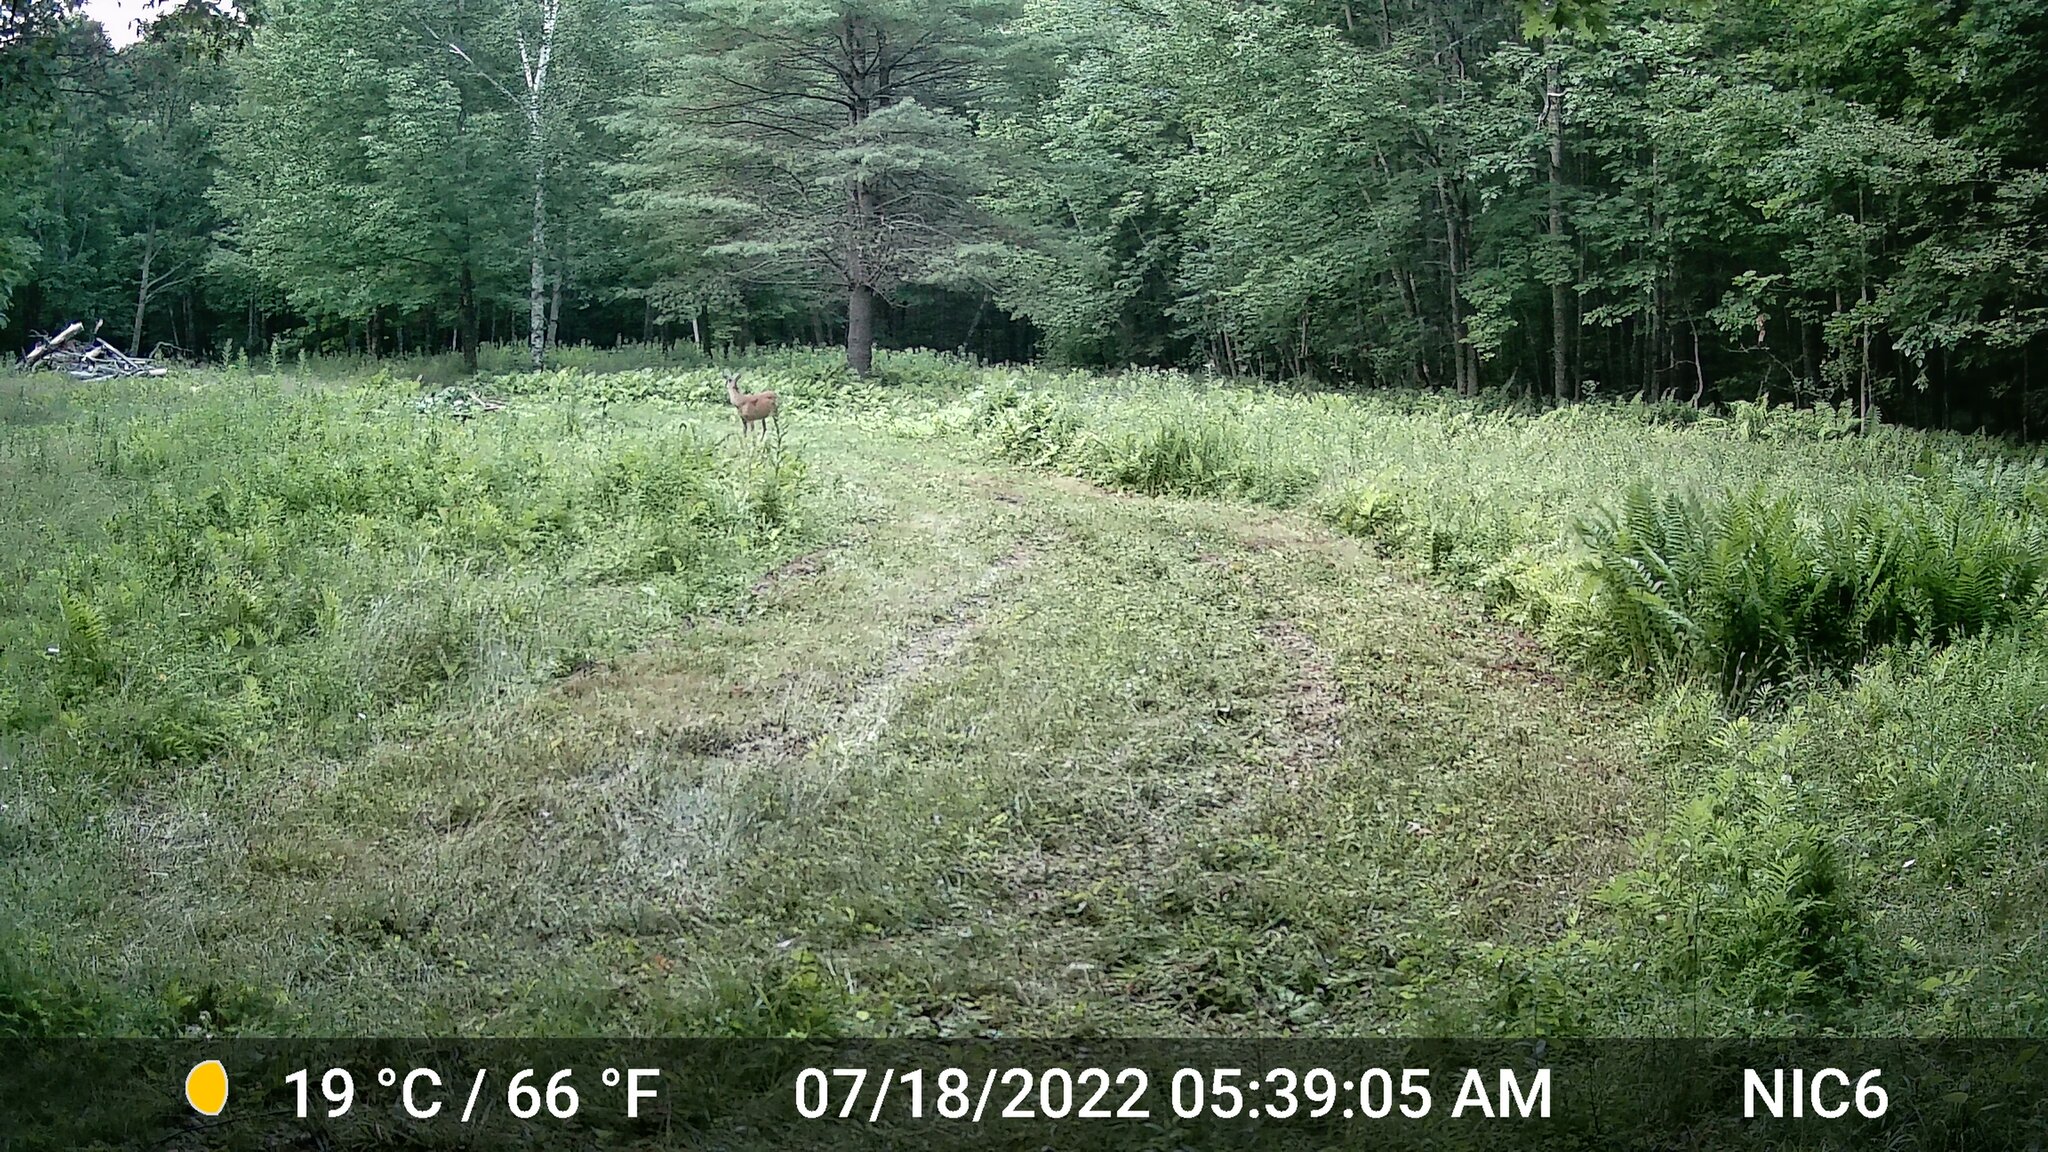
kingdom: Animalia
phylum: Chordata
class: Mammalia
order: Artiodactyla
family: Cervidae
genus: Odocoileus
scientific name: Odocoileus virginianus
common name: White-tailed deer
